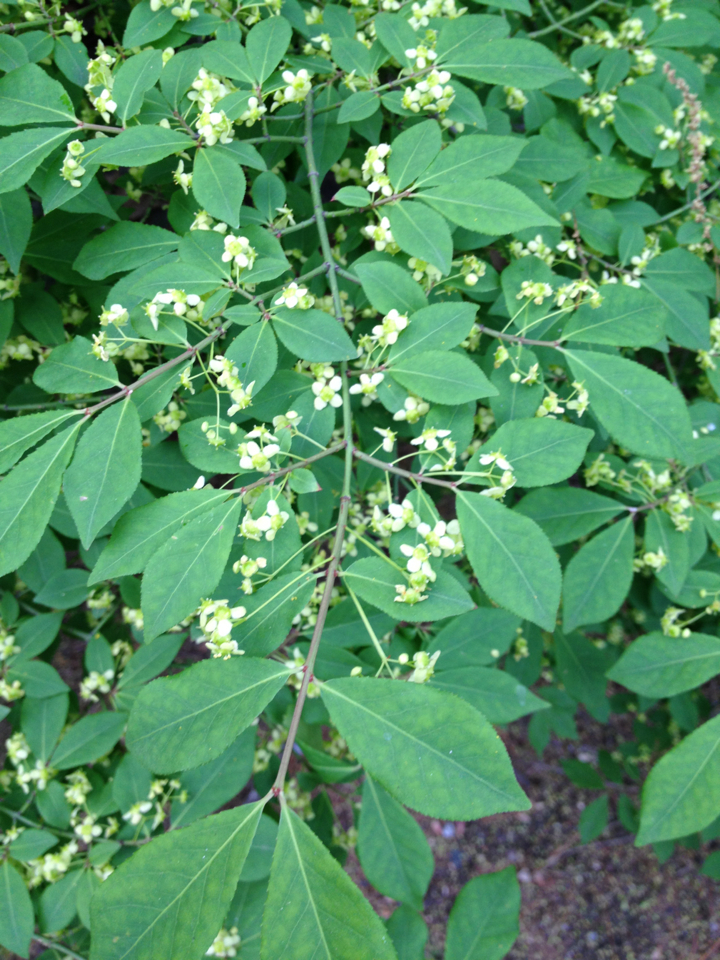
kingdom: Plantae
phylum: Tracheophyta
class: Magnoliopsida
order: Celastrales
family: Celastraceae
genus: Euonymus
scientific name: Euonymus alatus
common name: Winged euonymus
